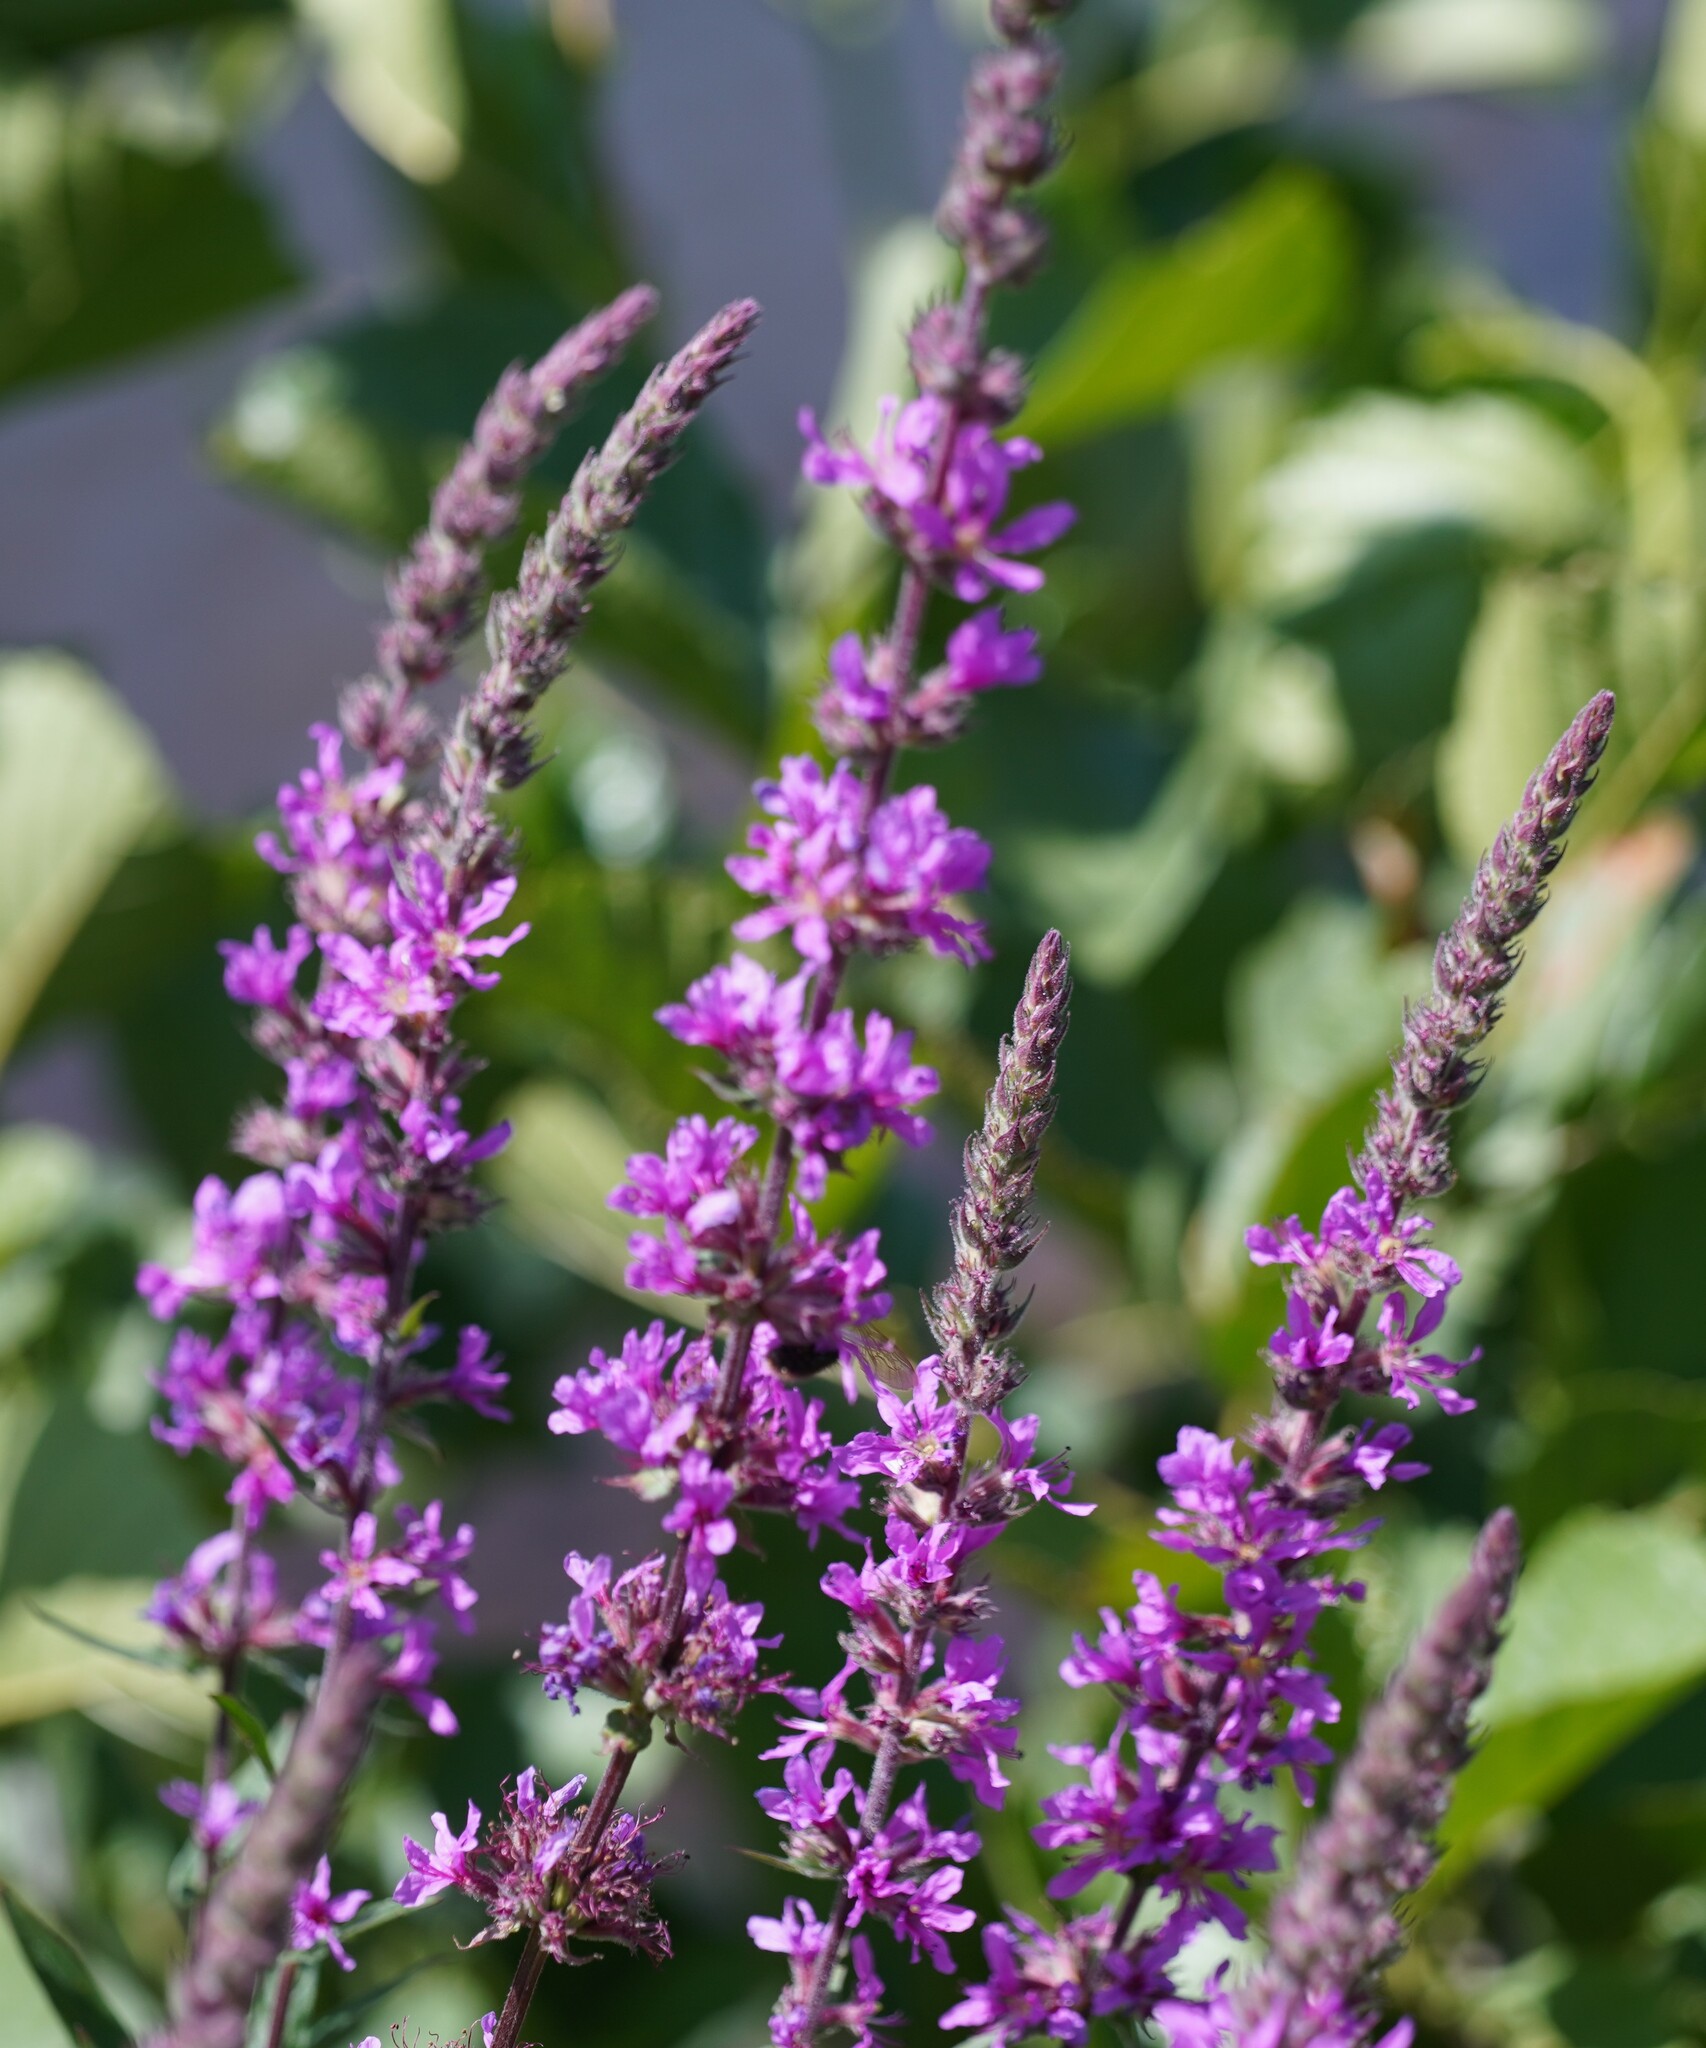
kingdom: Plantae
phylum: Tracheophyta
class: Magnoliopsida
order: Myrtales
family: Lythraceae
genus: Lythrum
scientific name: Lythrum salicaria
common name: Purple loosestrife
